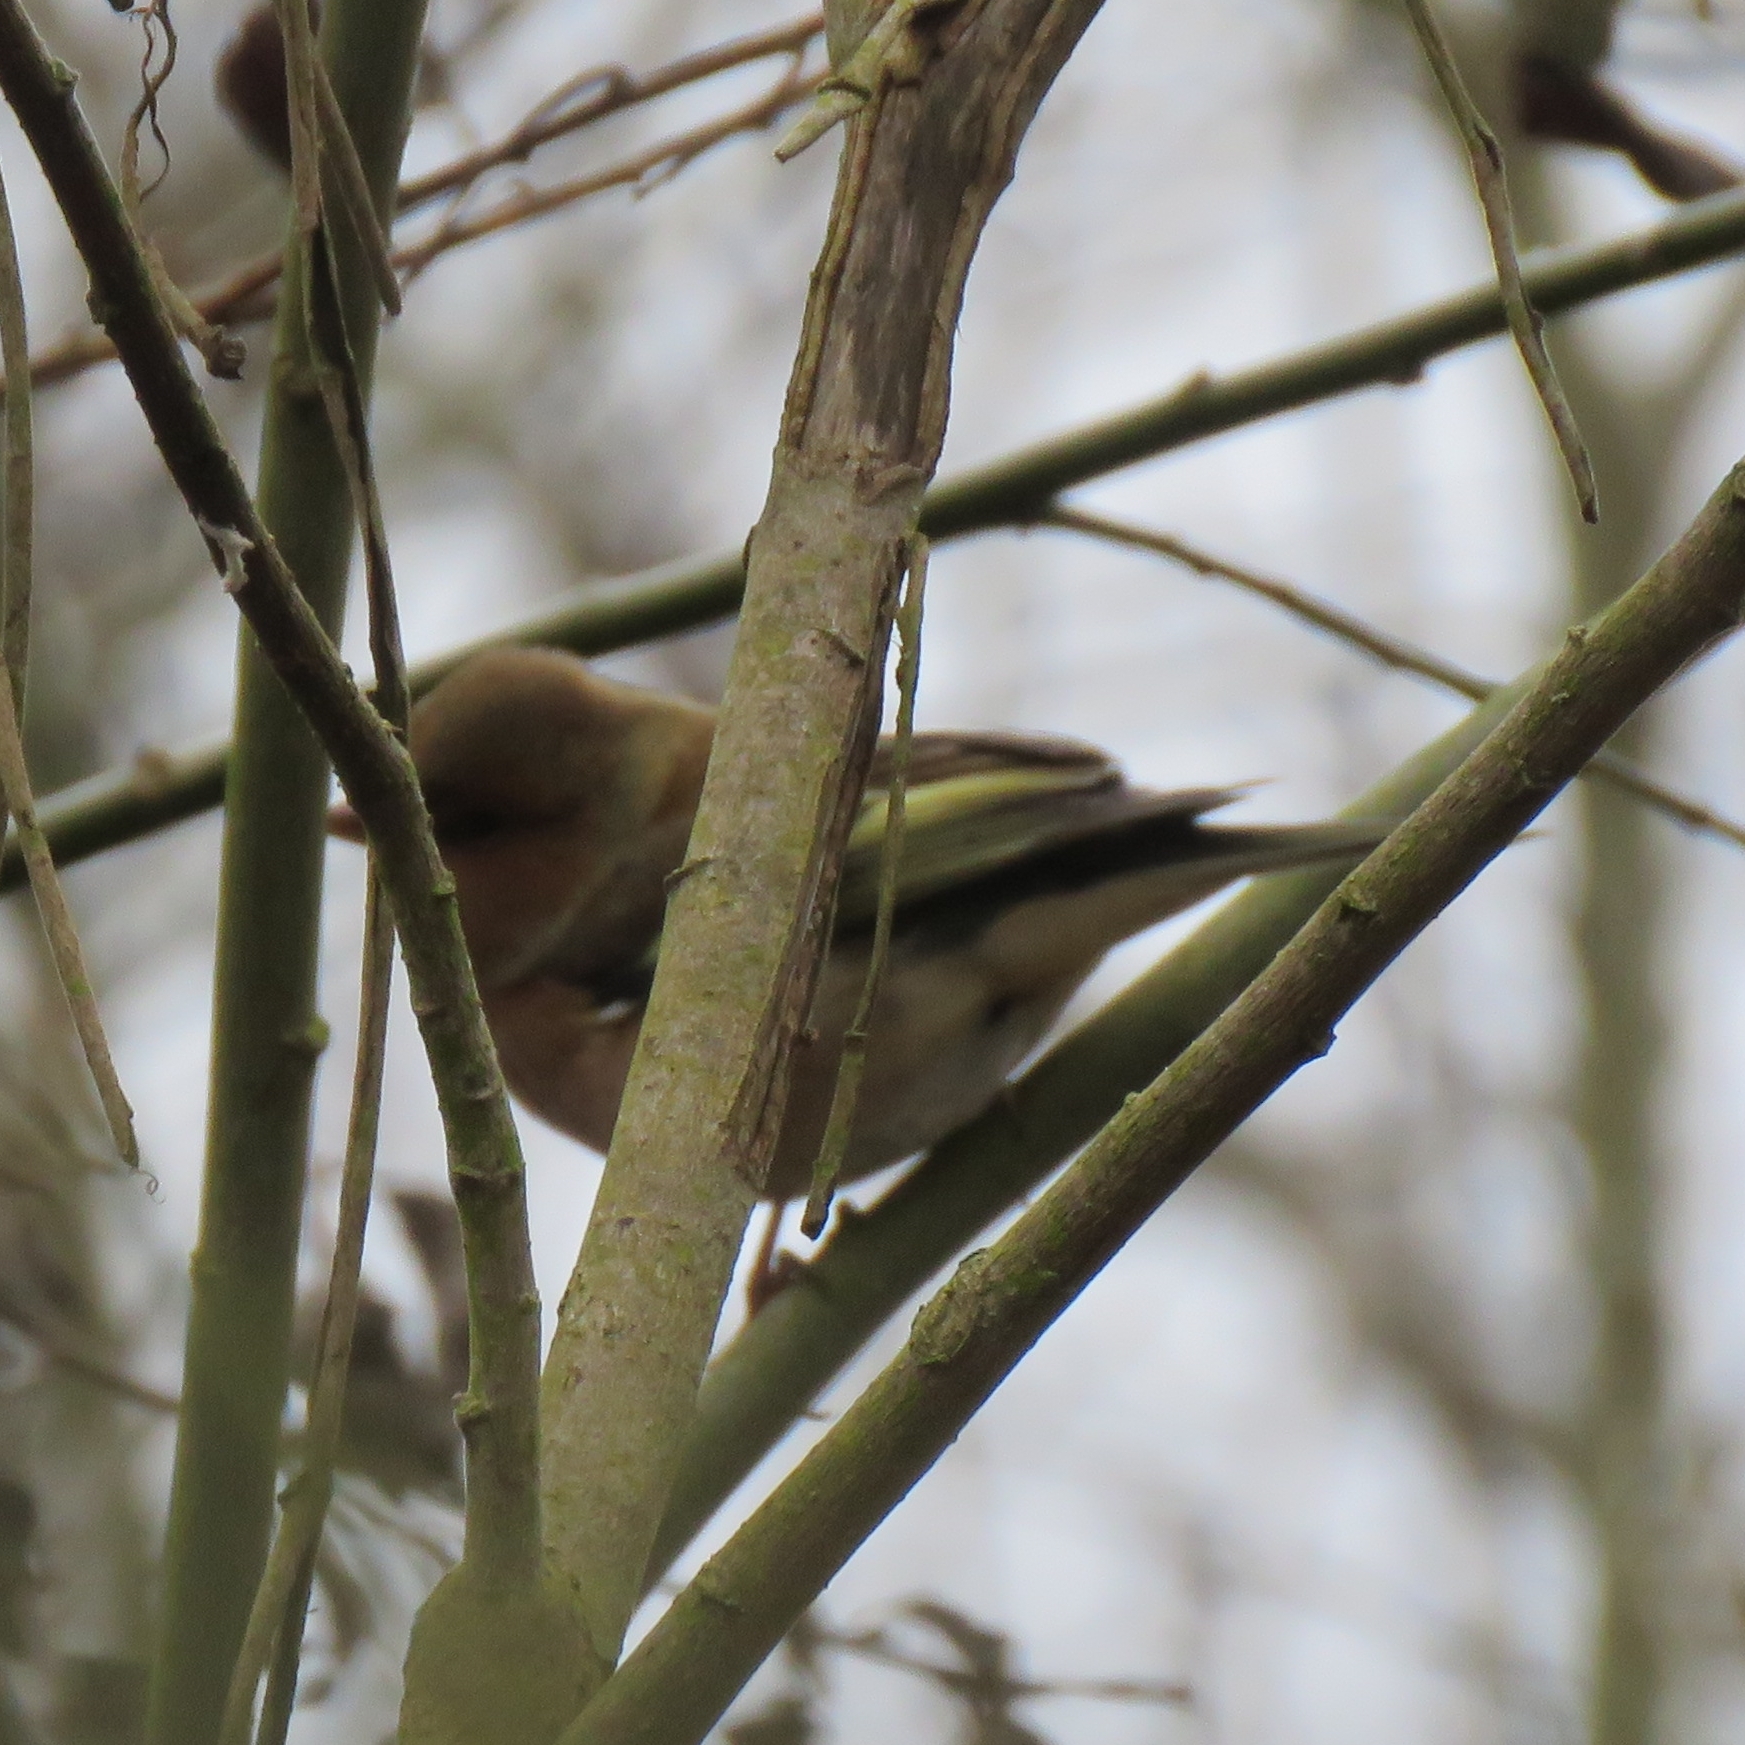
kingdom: Animalia
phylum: Chordata
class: Aves
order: Passeriformes
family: Fringillidae
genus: Fringilla
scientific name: Fringilla coelebs
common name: Common chaffinch
